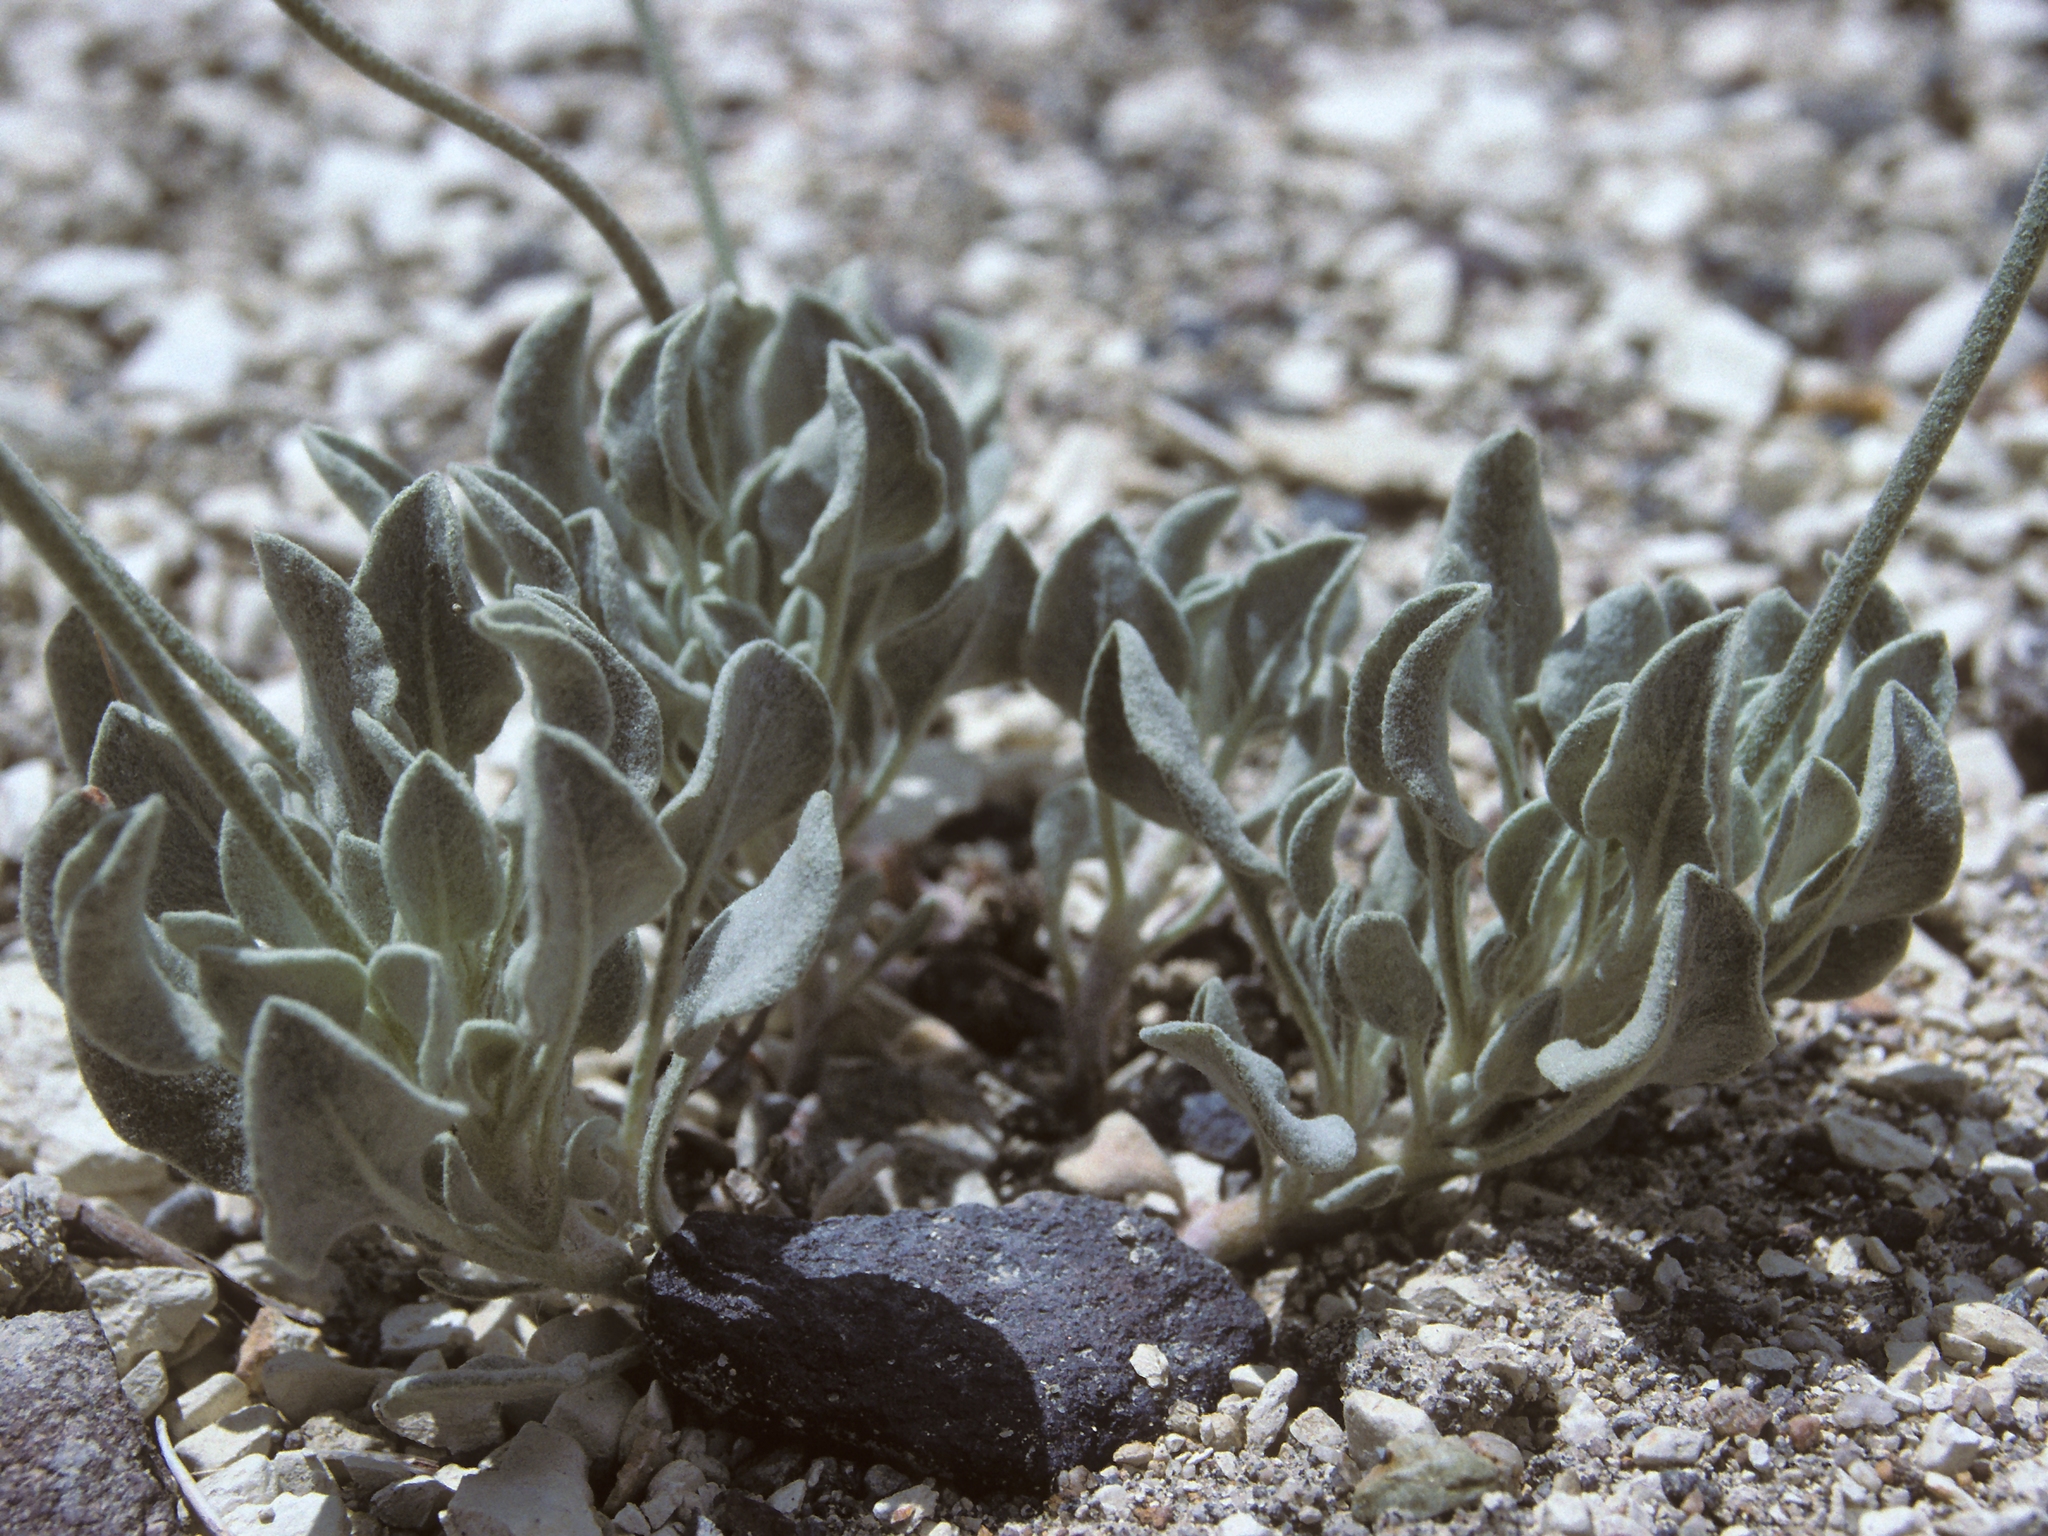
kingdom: Plantae
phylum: Tracheophyta
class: Magnoliopsida
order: Caryophyllales
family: Polygonaceae
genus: Eriogonum
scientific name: Eriogonum diatomaceum
